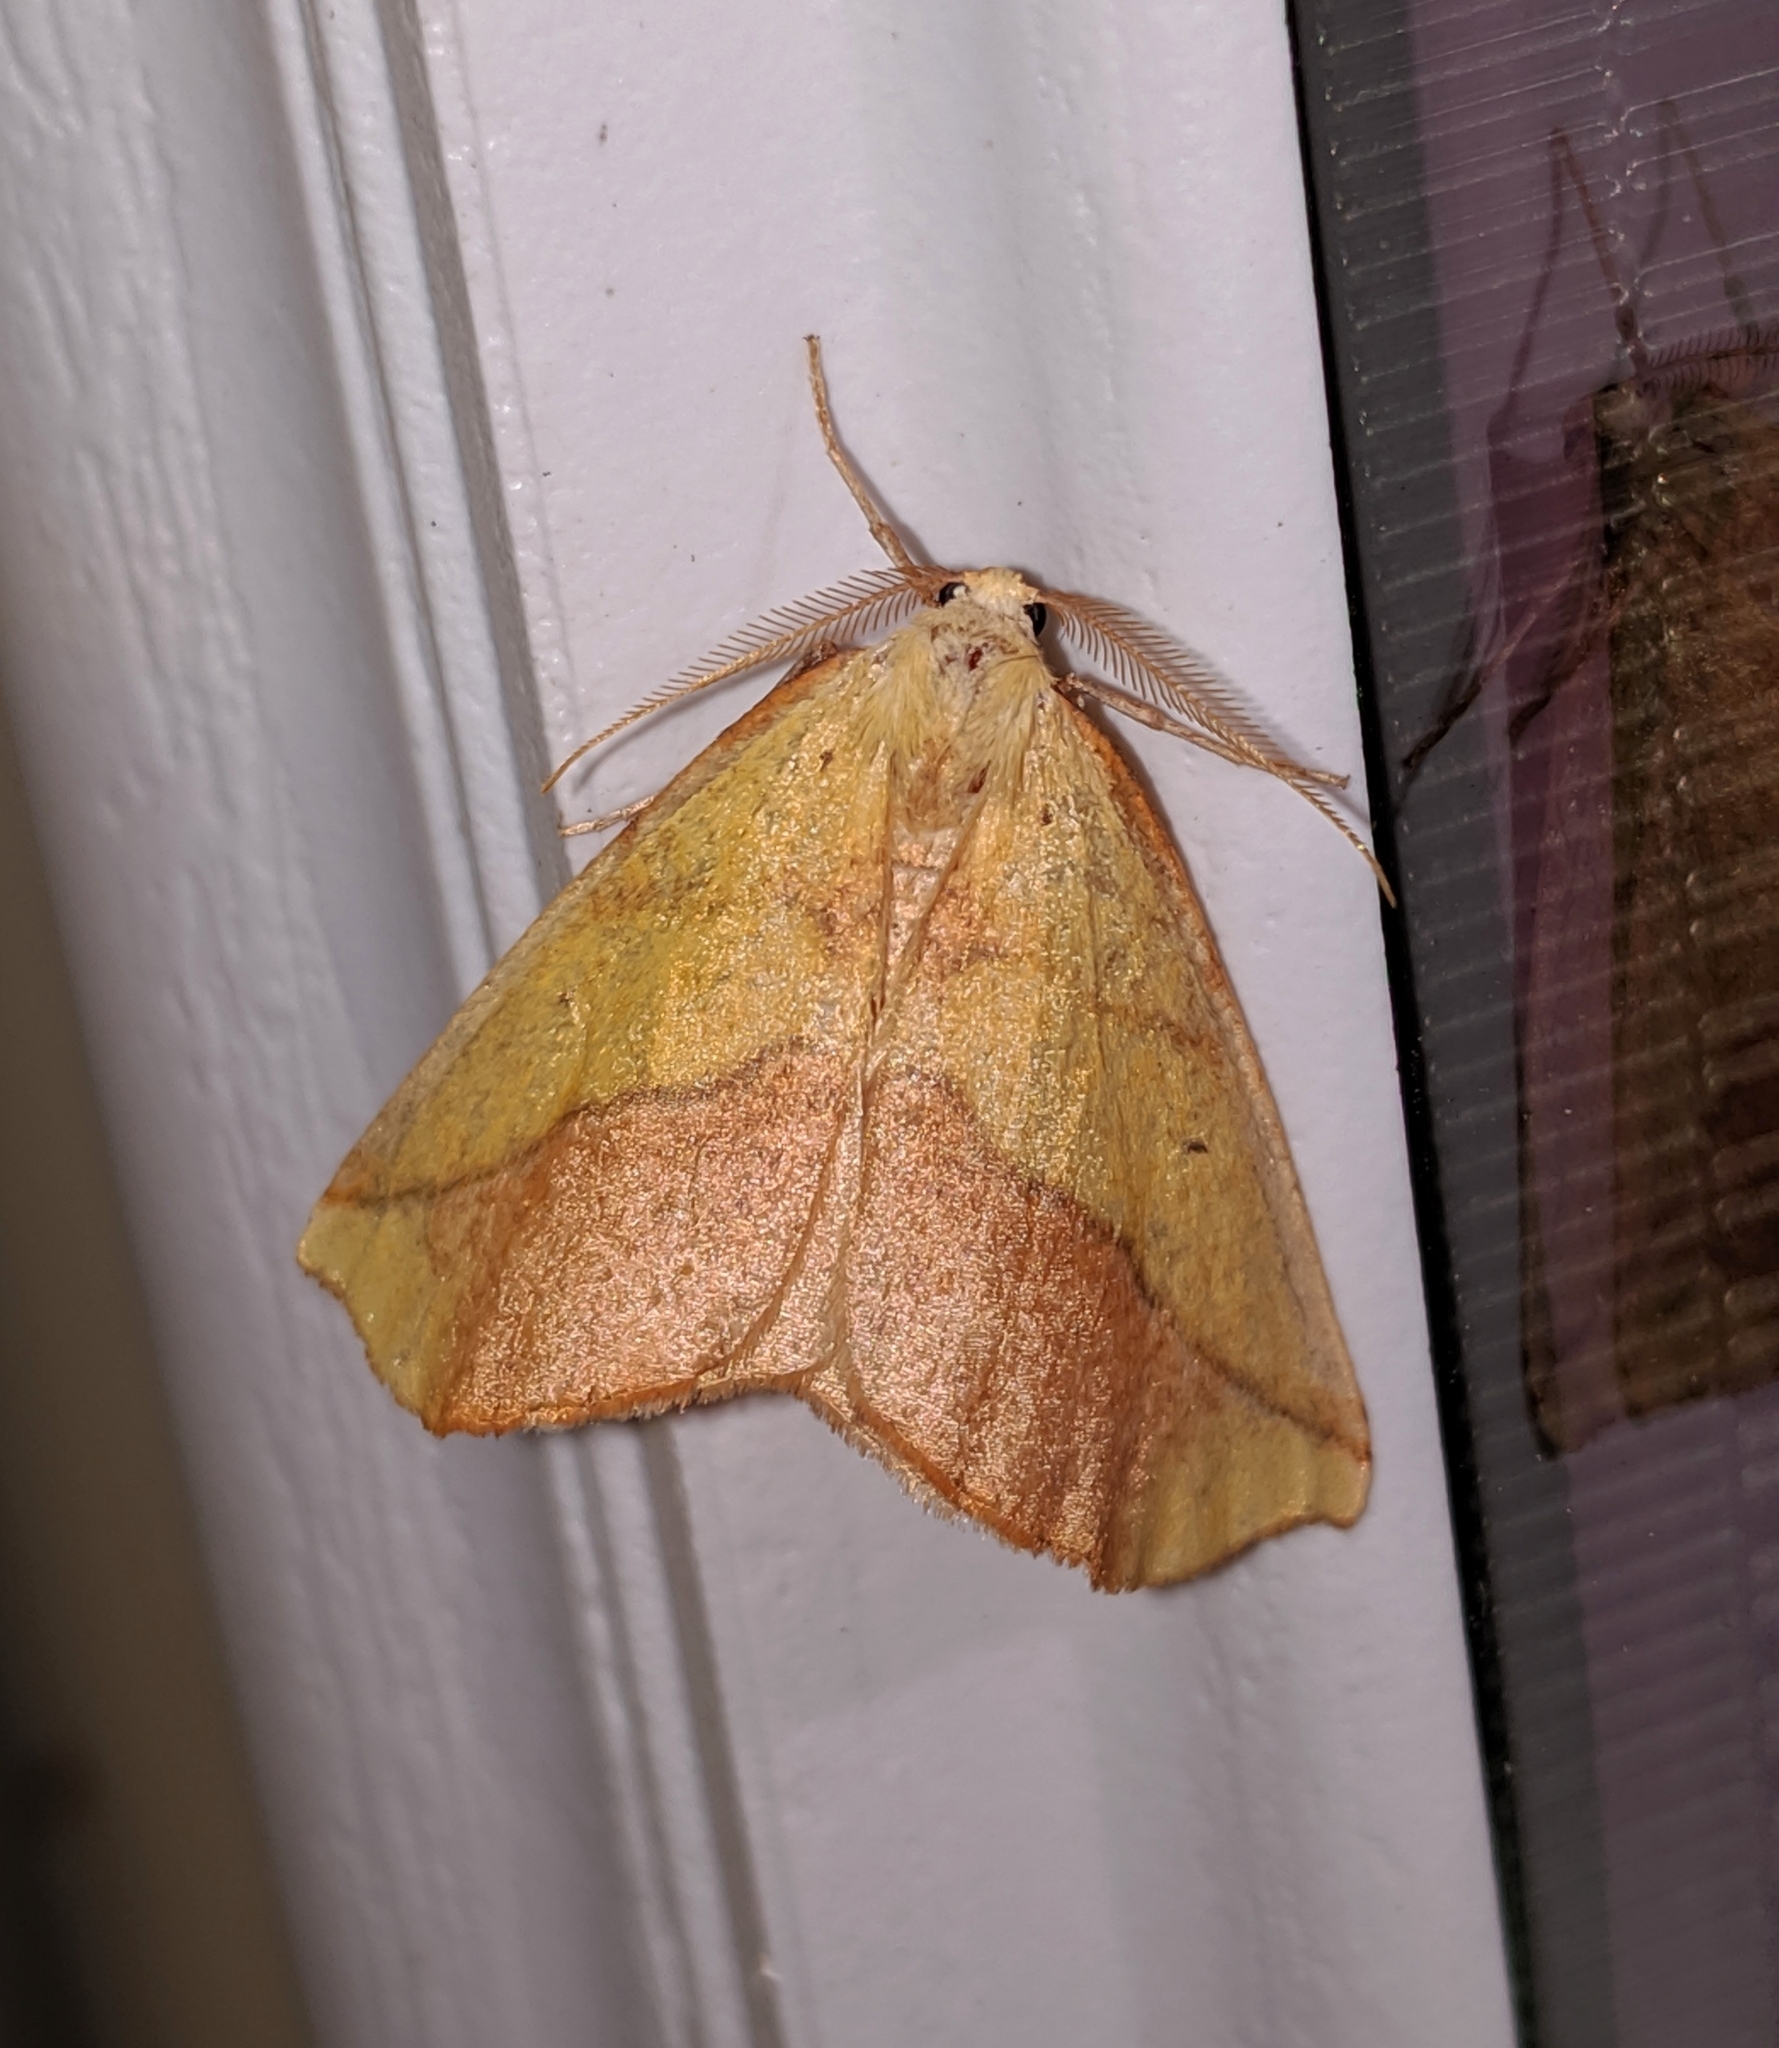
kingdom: Animalia
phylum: Arthropoda
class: Insecta
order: Lepidoptera
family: Geometridae
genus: Sicya
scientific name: Sicya macularia
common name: Sharp-lined yellow
